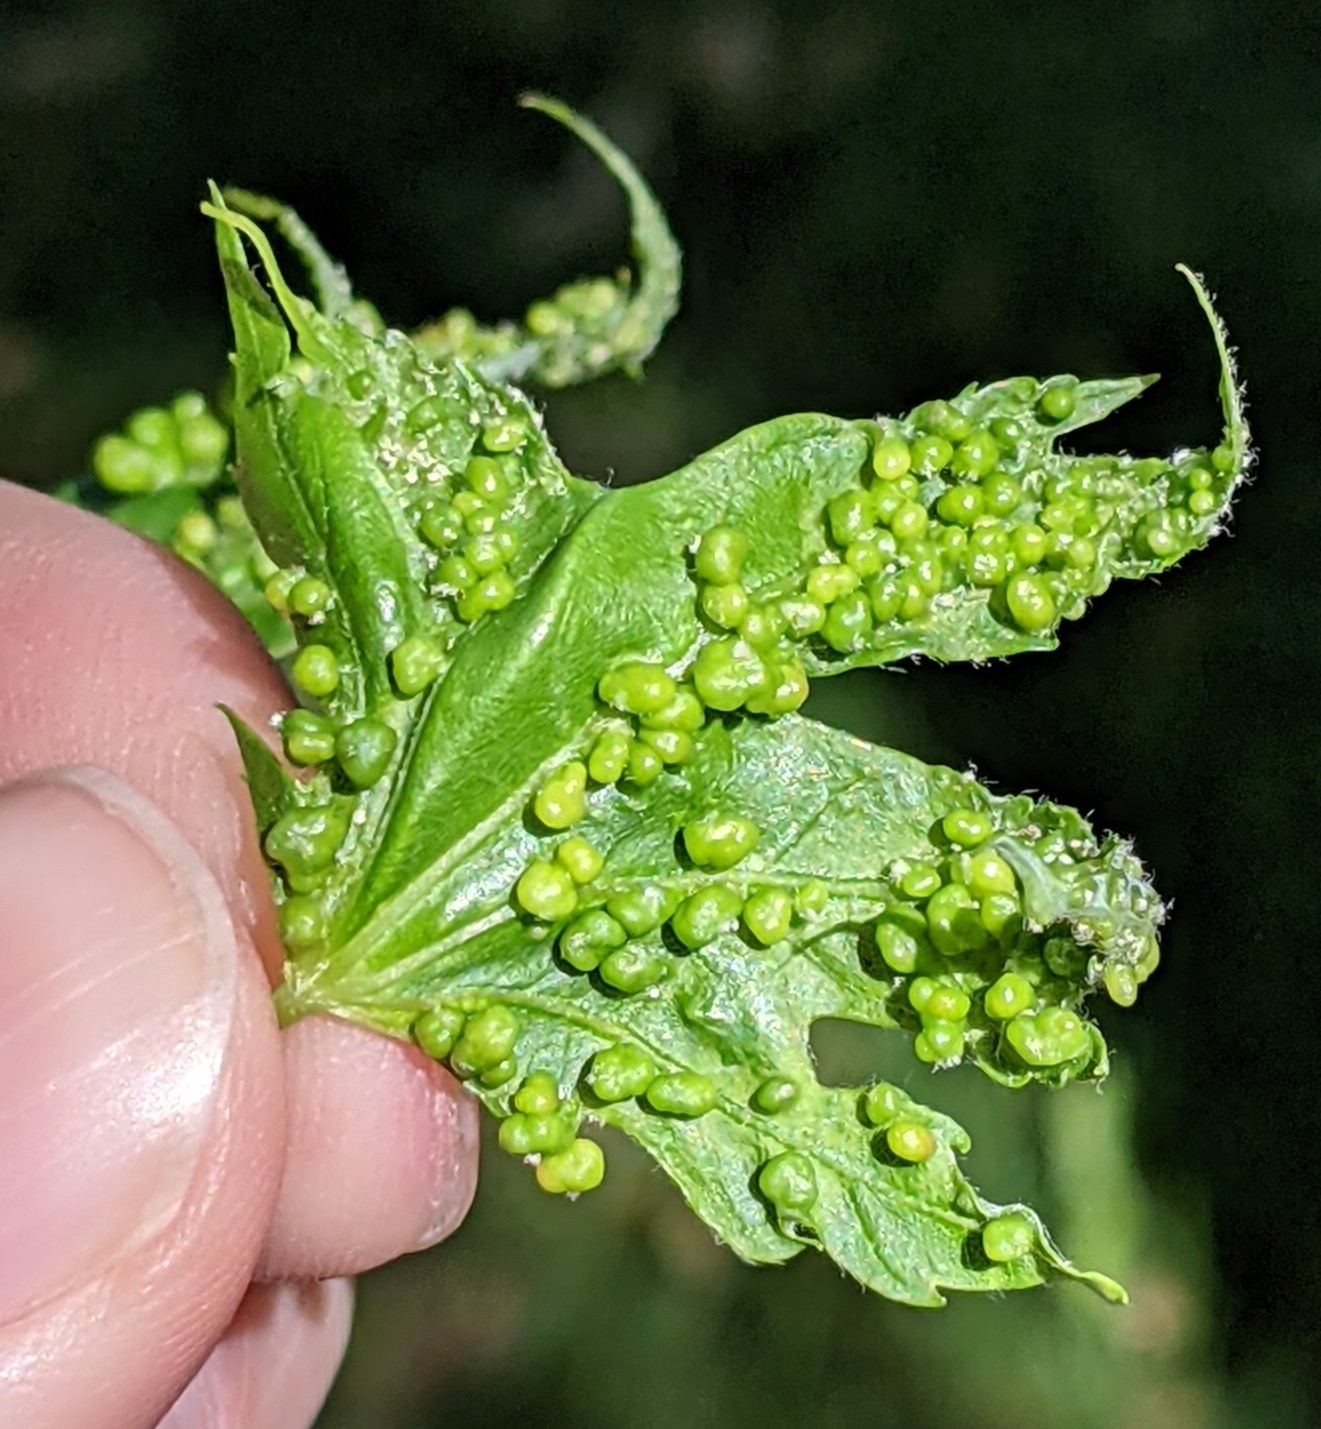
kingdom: Animalia
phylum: Arthropoda
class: Arachnida
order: Trombidiformes
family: Eriophyidae
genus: Vasates
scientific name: Vasates quadripedes
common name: Maple bladder gall mite
